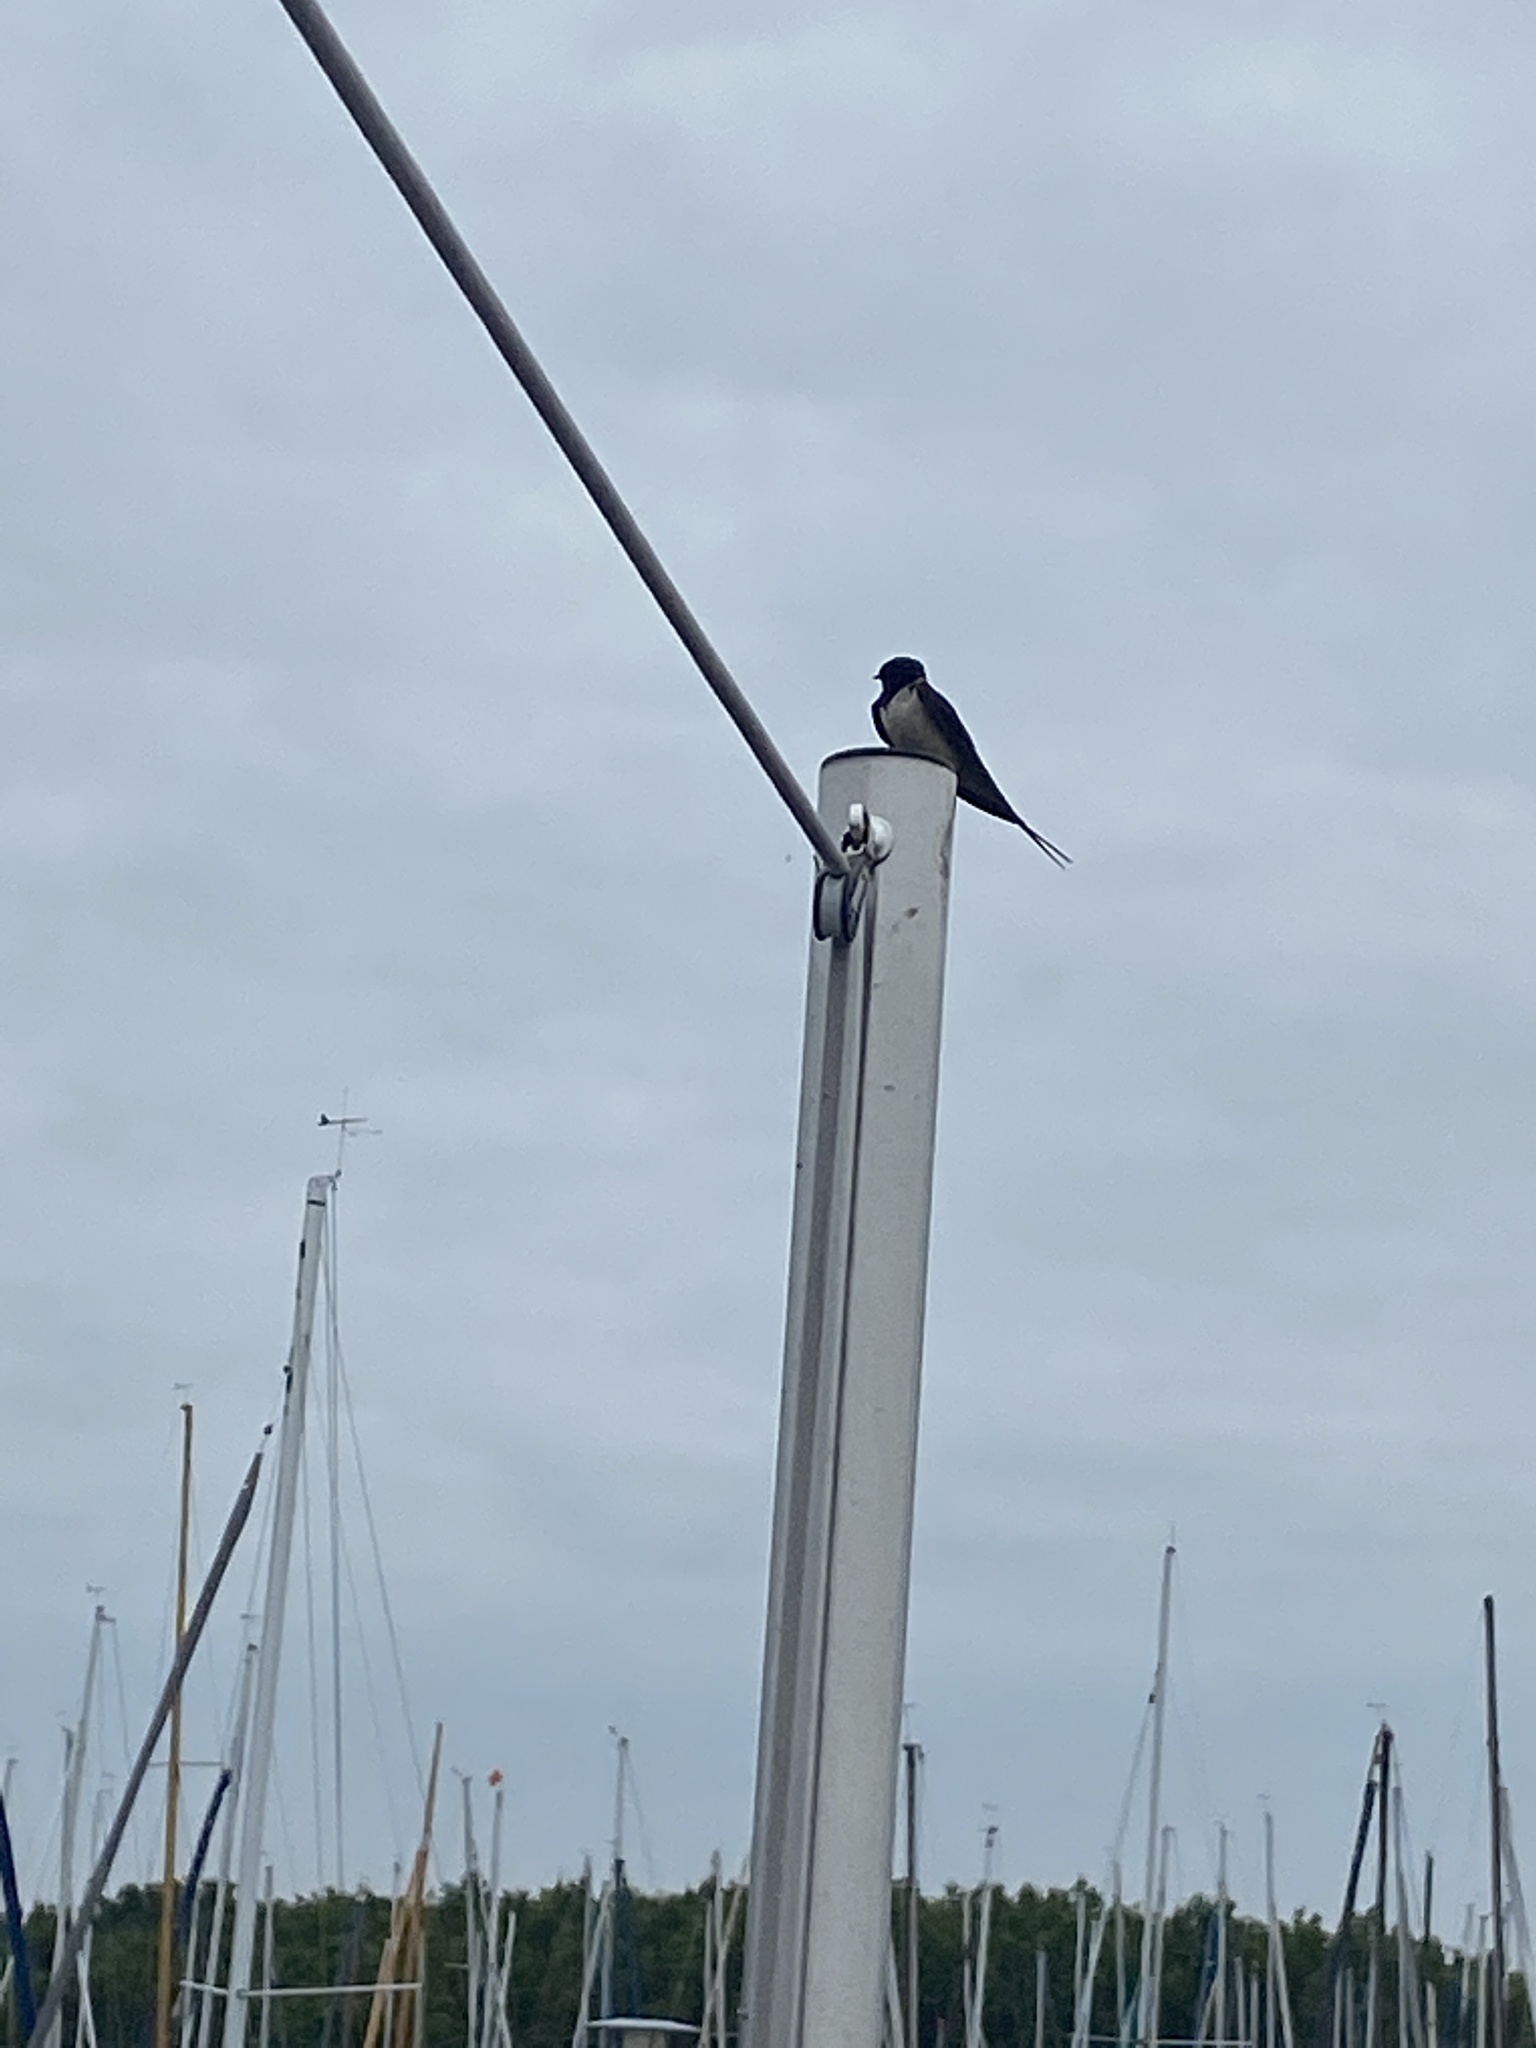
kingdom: Animalia
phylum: Chordata
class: Aves
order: Passeriformes
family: Hirundinidae
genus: Hirundo
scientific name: Hirundo rustica
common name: Barn swallow
